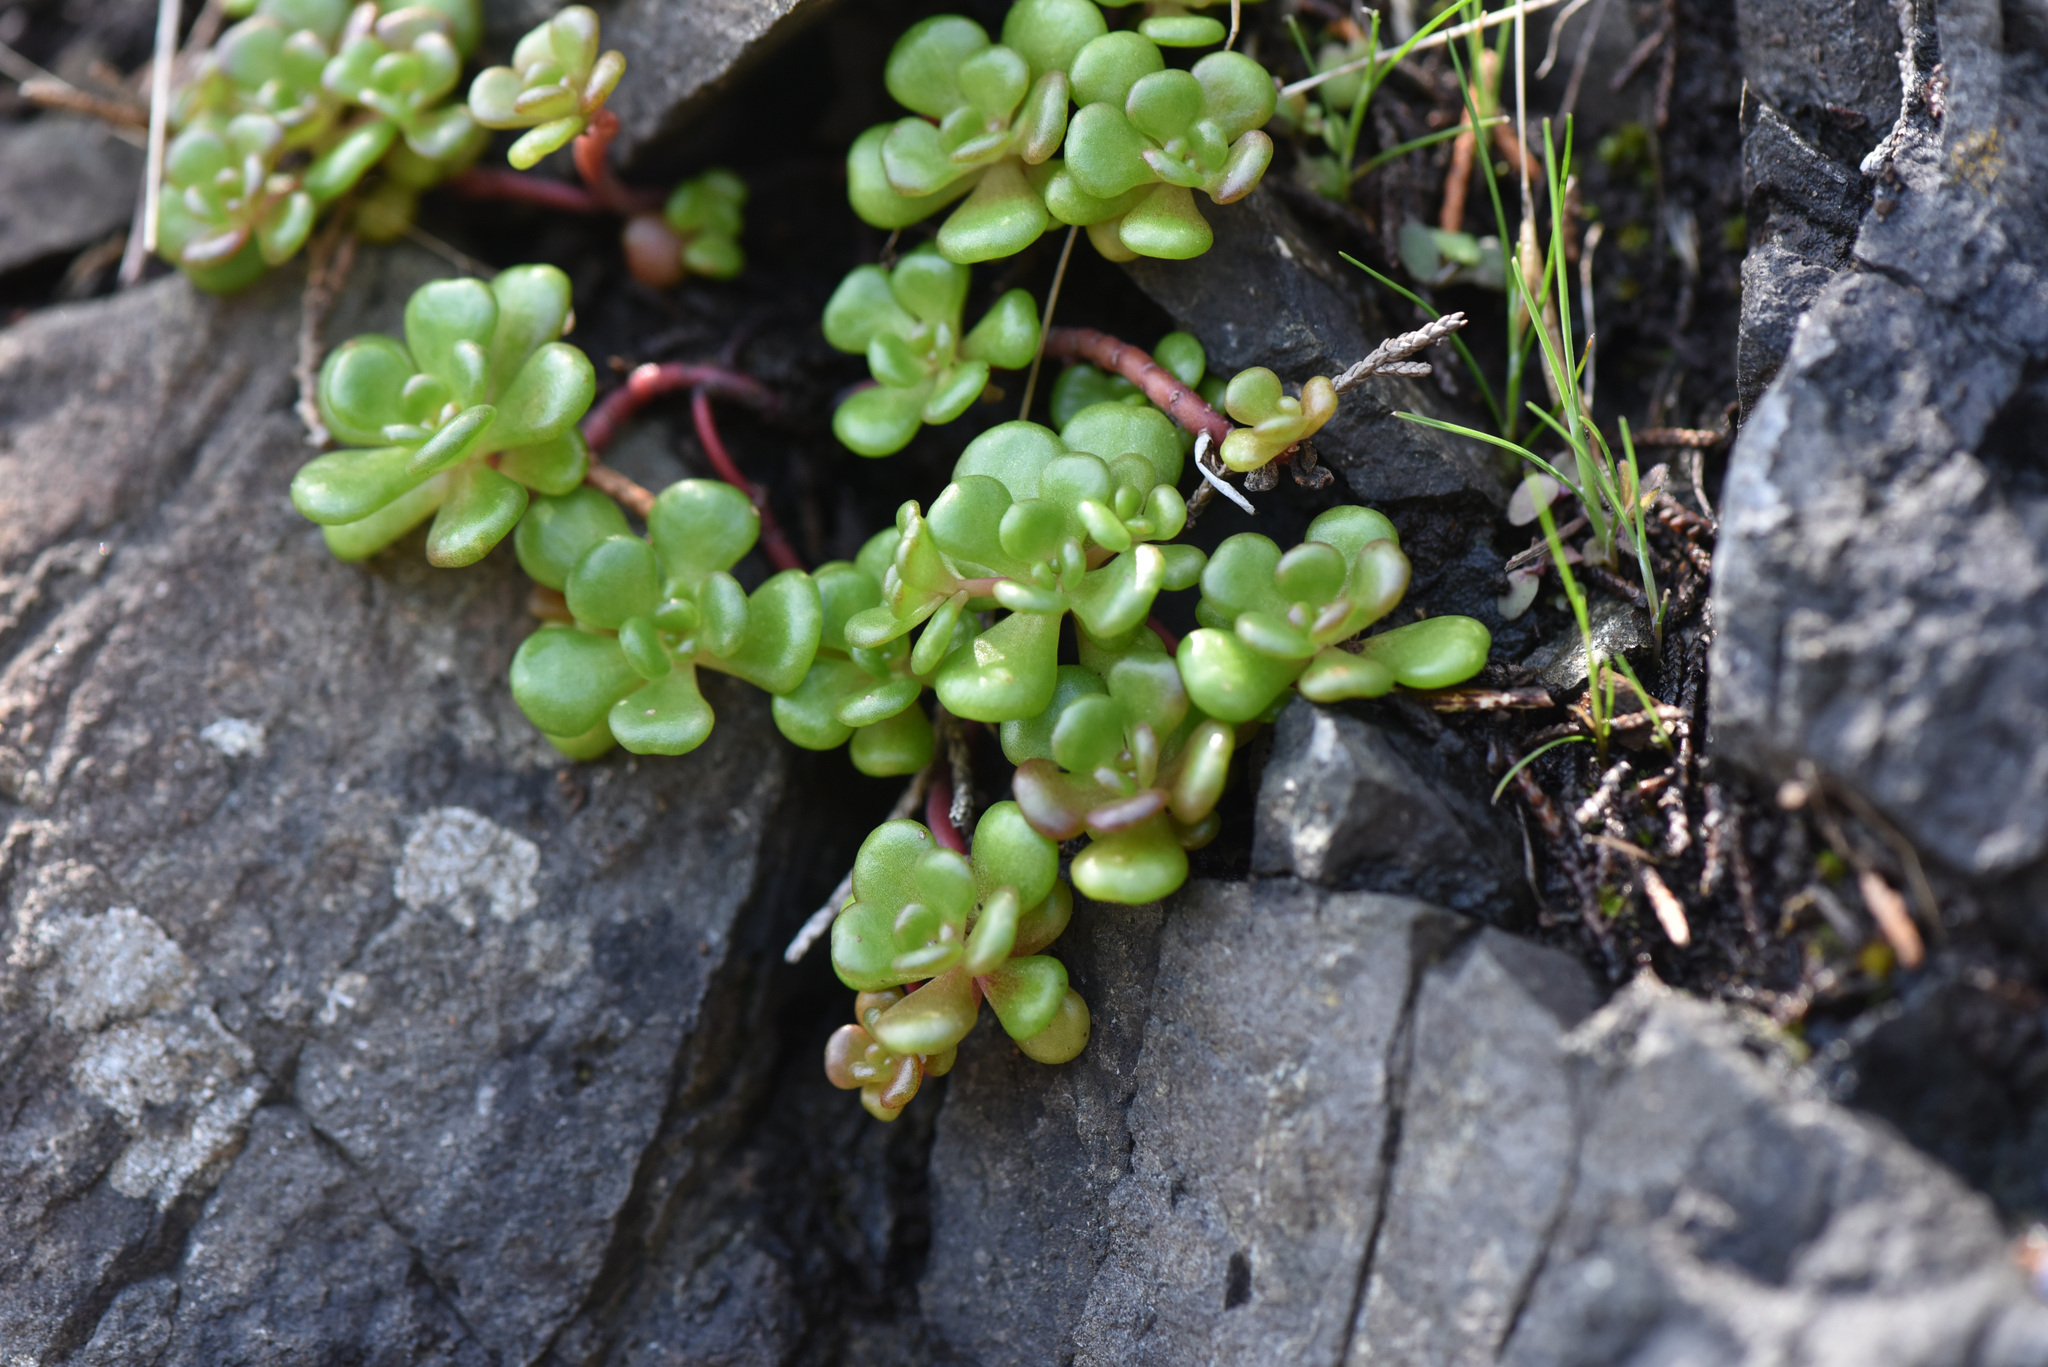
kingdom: Plantae
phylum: Tracheophyta
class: Magnoliopsida
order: Saxifragales
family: Crassulaceae
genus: Sedum
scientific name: Sedum oreganum
